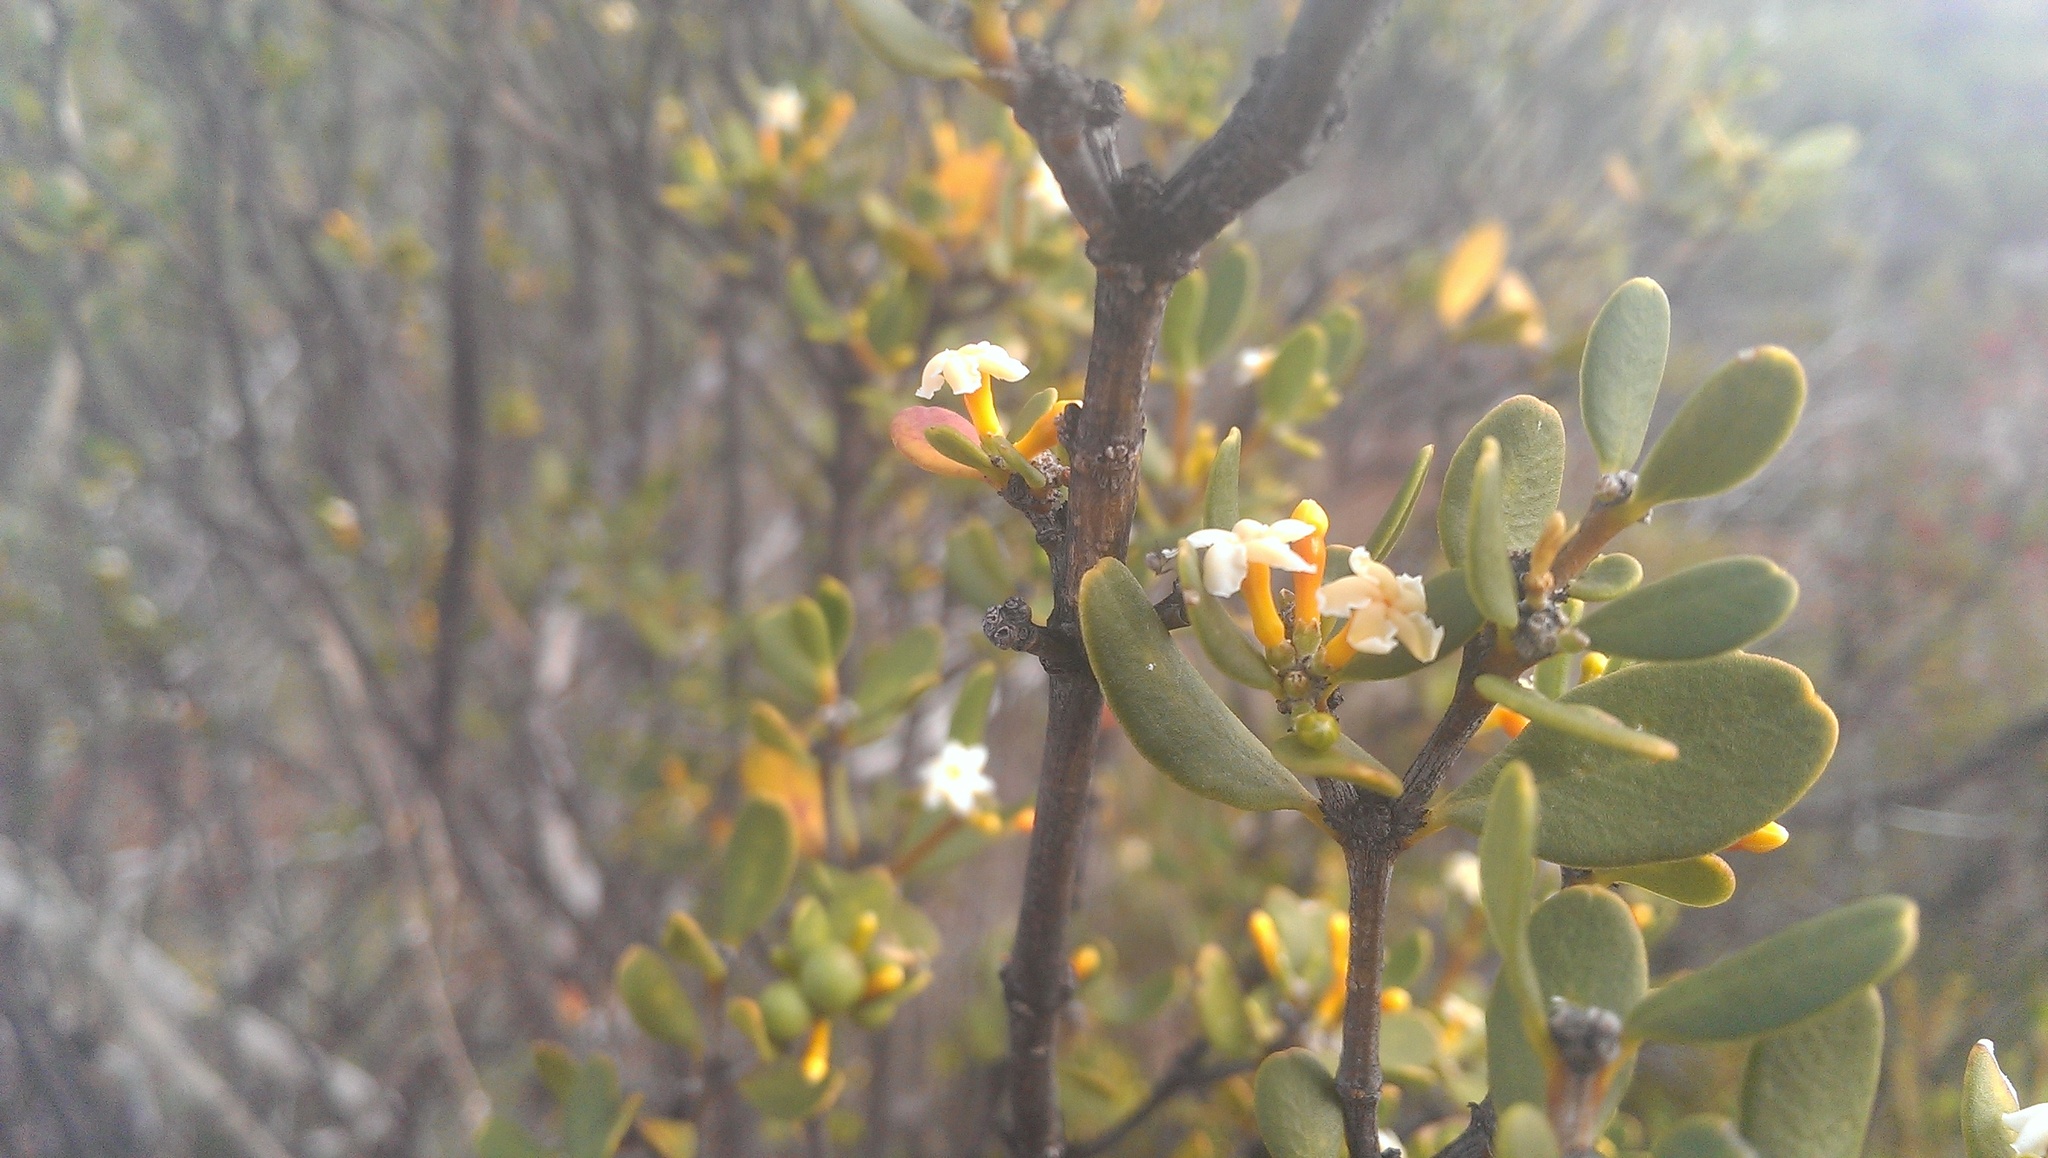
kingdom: Plantae
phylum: Tracheophyta
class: Magnoliopsida
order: Gentianales
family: Apocynaceae
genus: Alyxia
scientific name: Alyxia buxifolia
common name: Dysentery-bush
